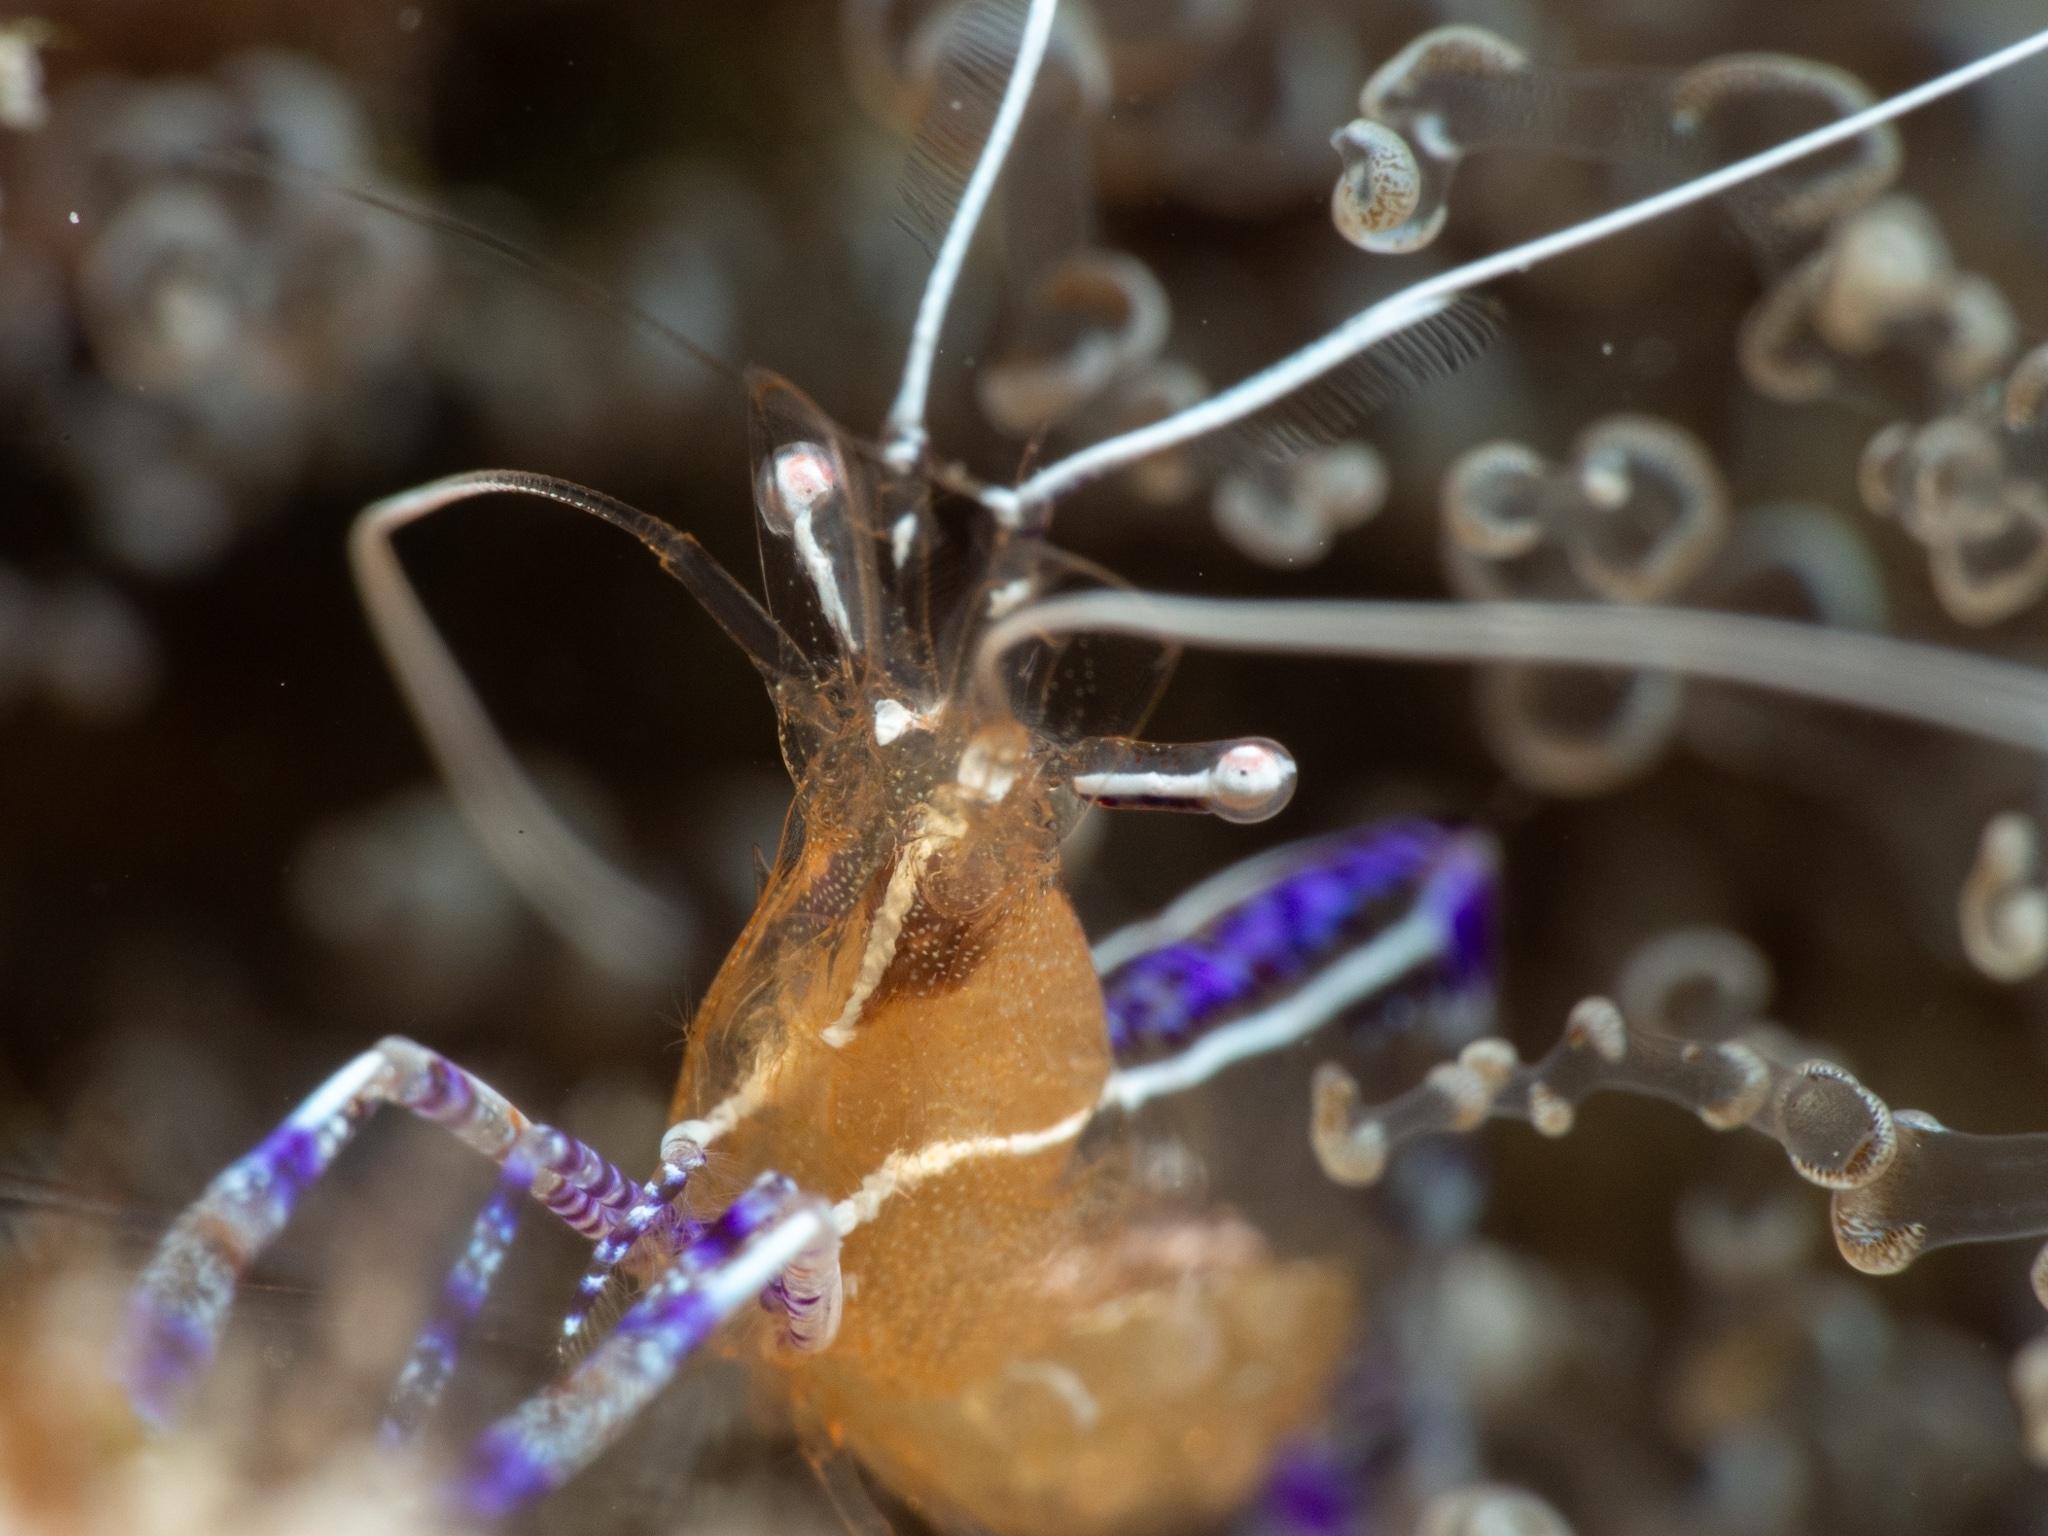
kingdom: Animalia
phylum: Arthropoda
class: Malacostraca
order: Decapoda
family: Palaemonidae
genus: Ancylomenes
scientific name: Ancylomenes pedersoni
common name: Pederson's cleaning shrimp
